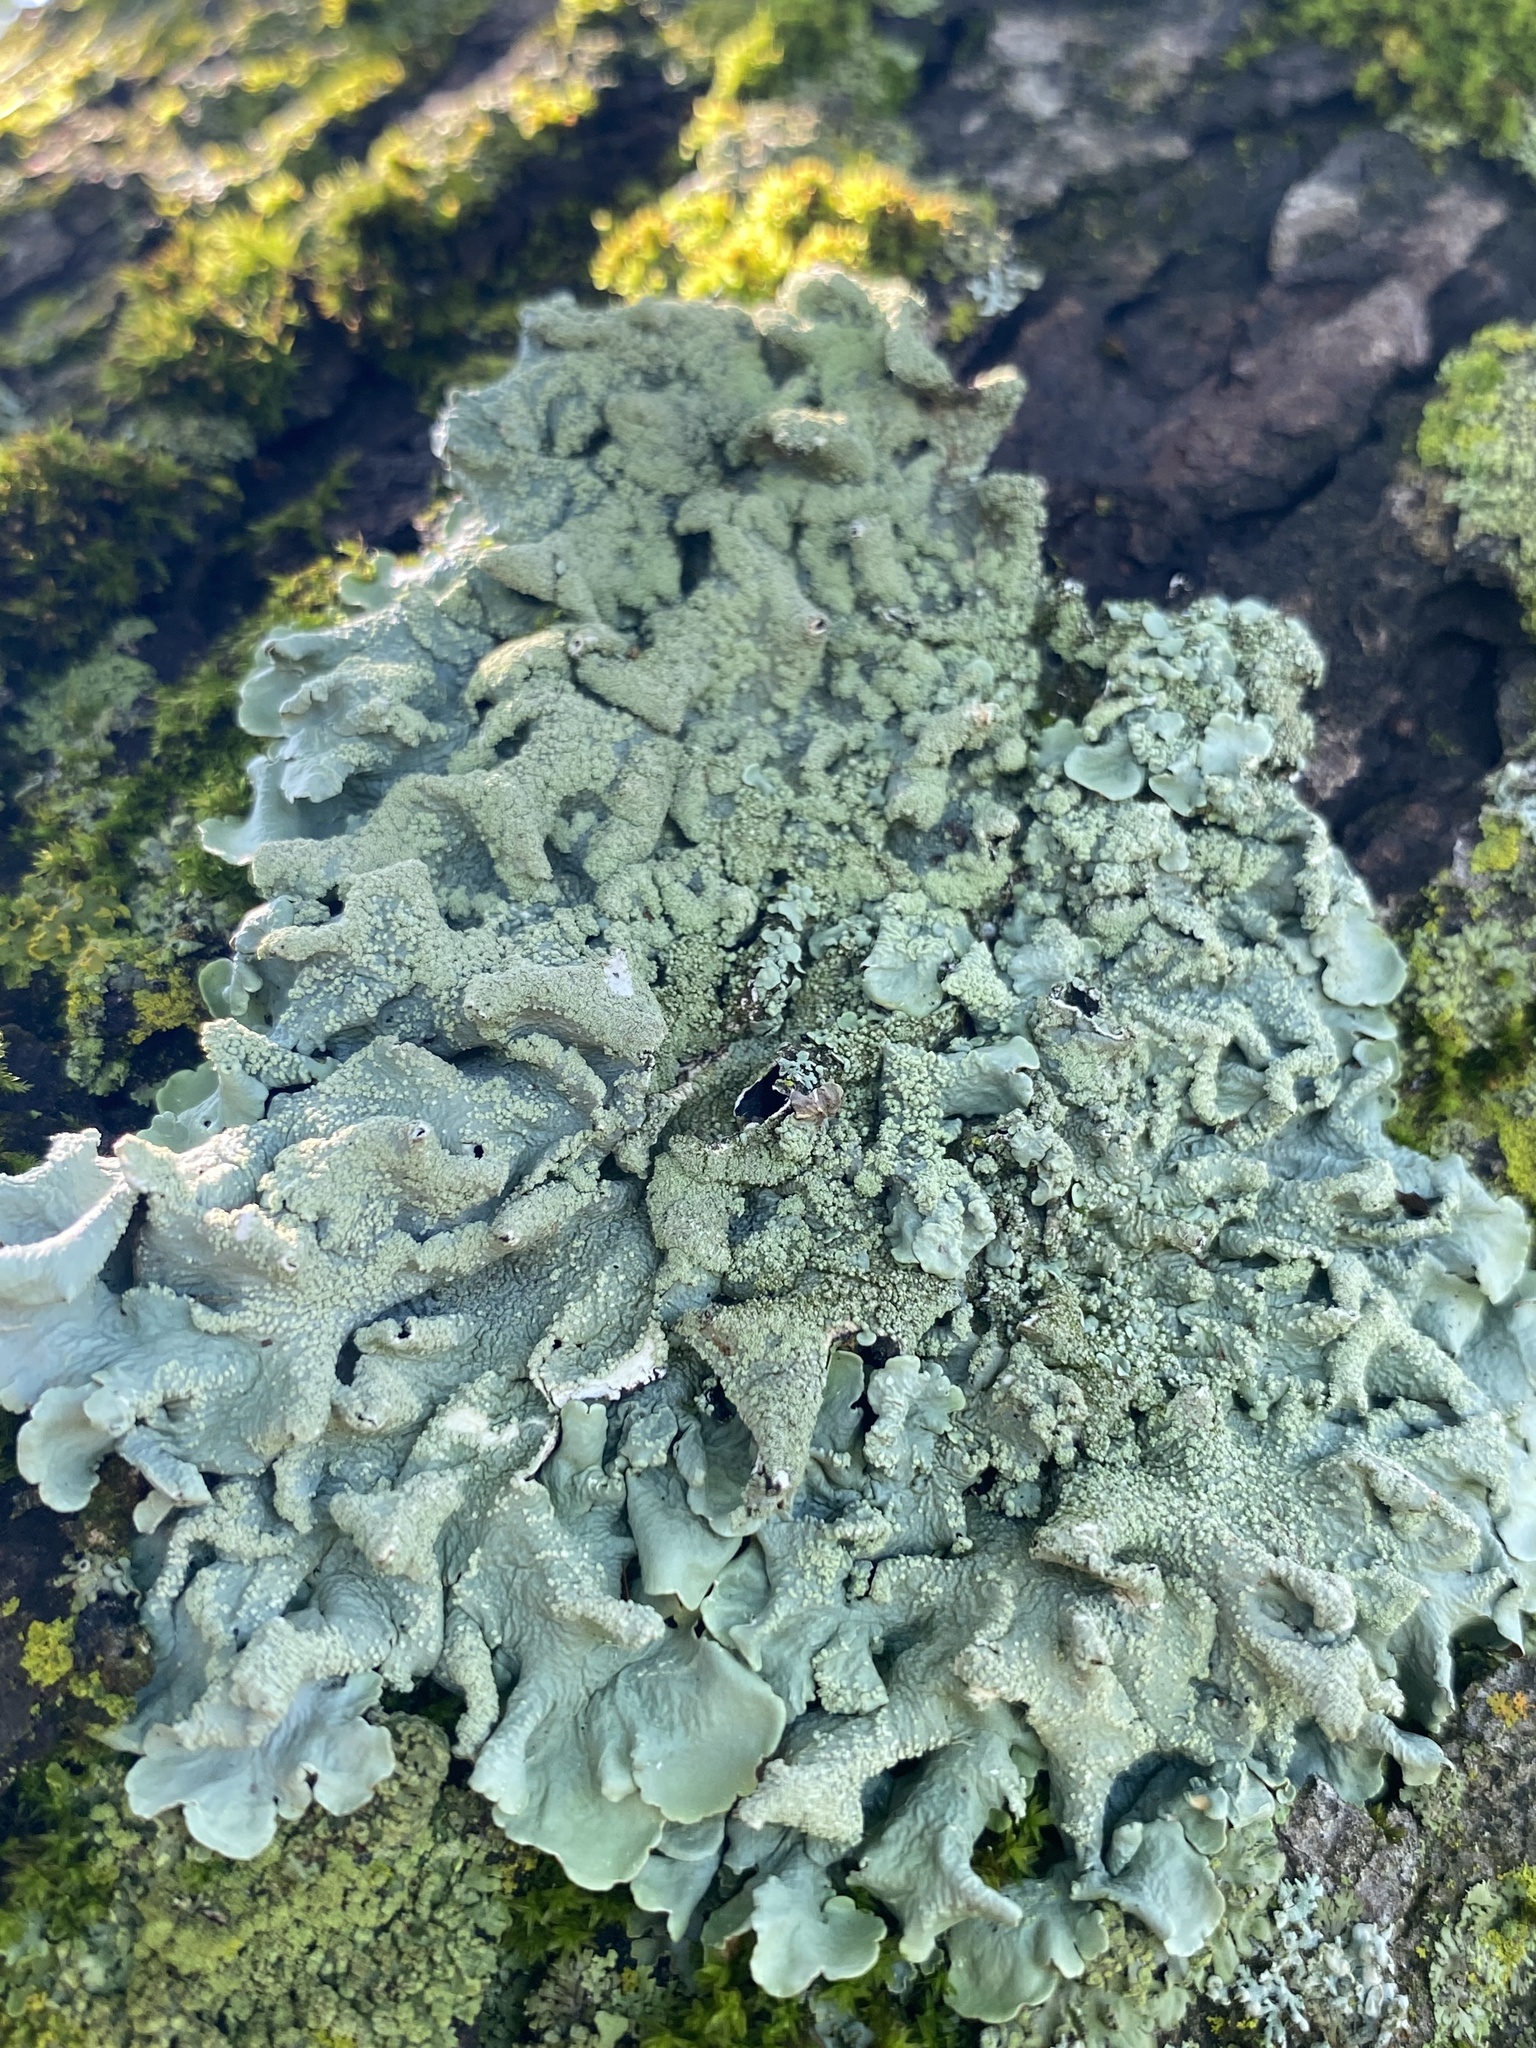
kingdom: Fungi
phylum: Ascomycota
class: Lecanoromycetes
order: Lecanorales
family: Parmeliaceae
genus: Flavoparmelia
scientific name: Flavoparmelia caperata
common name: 40-mile per hour lichen
